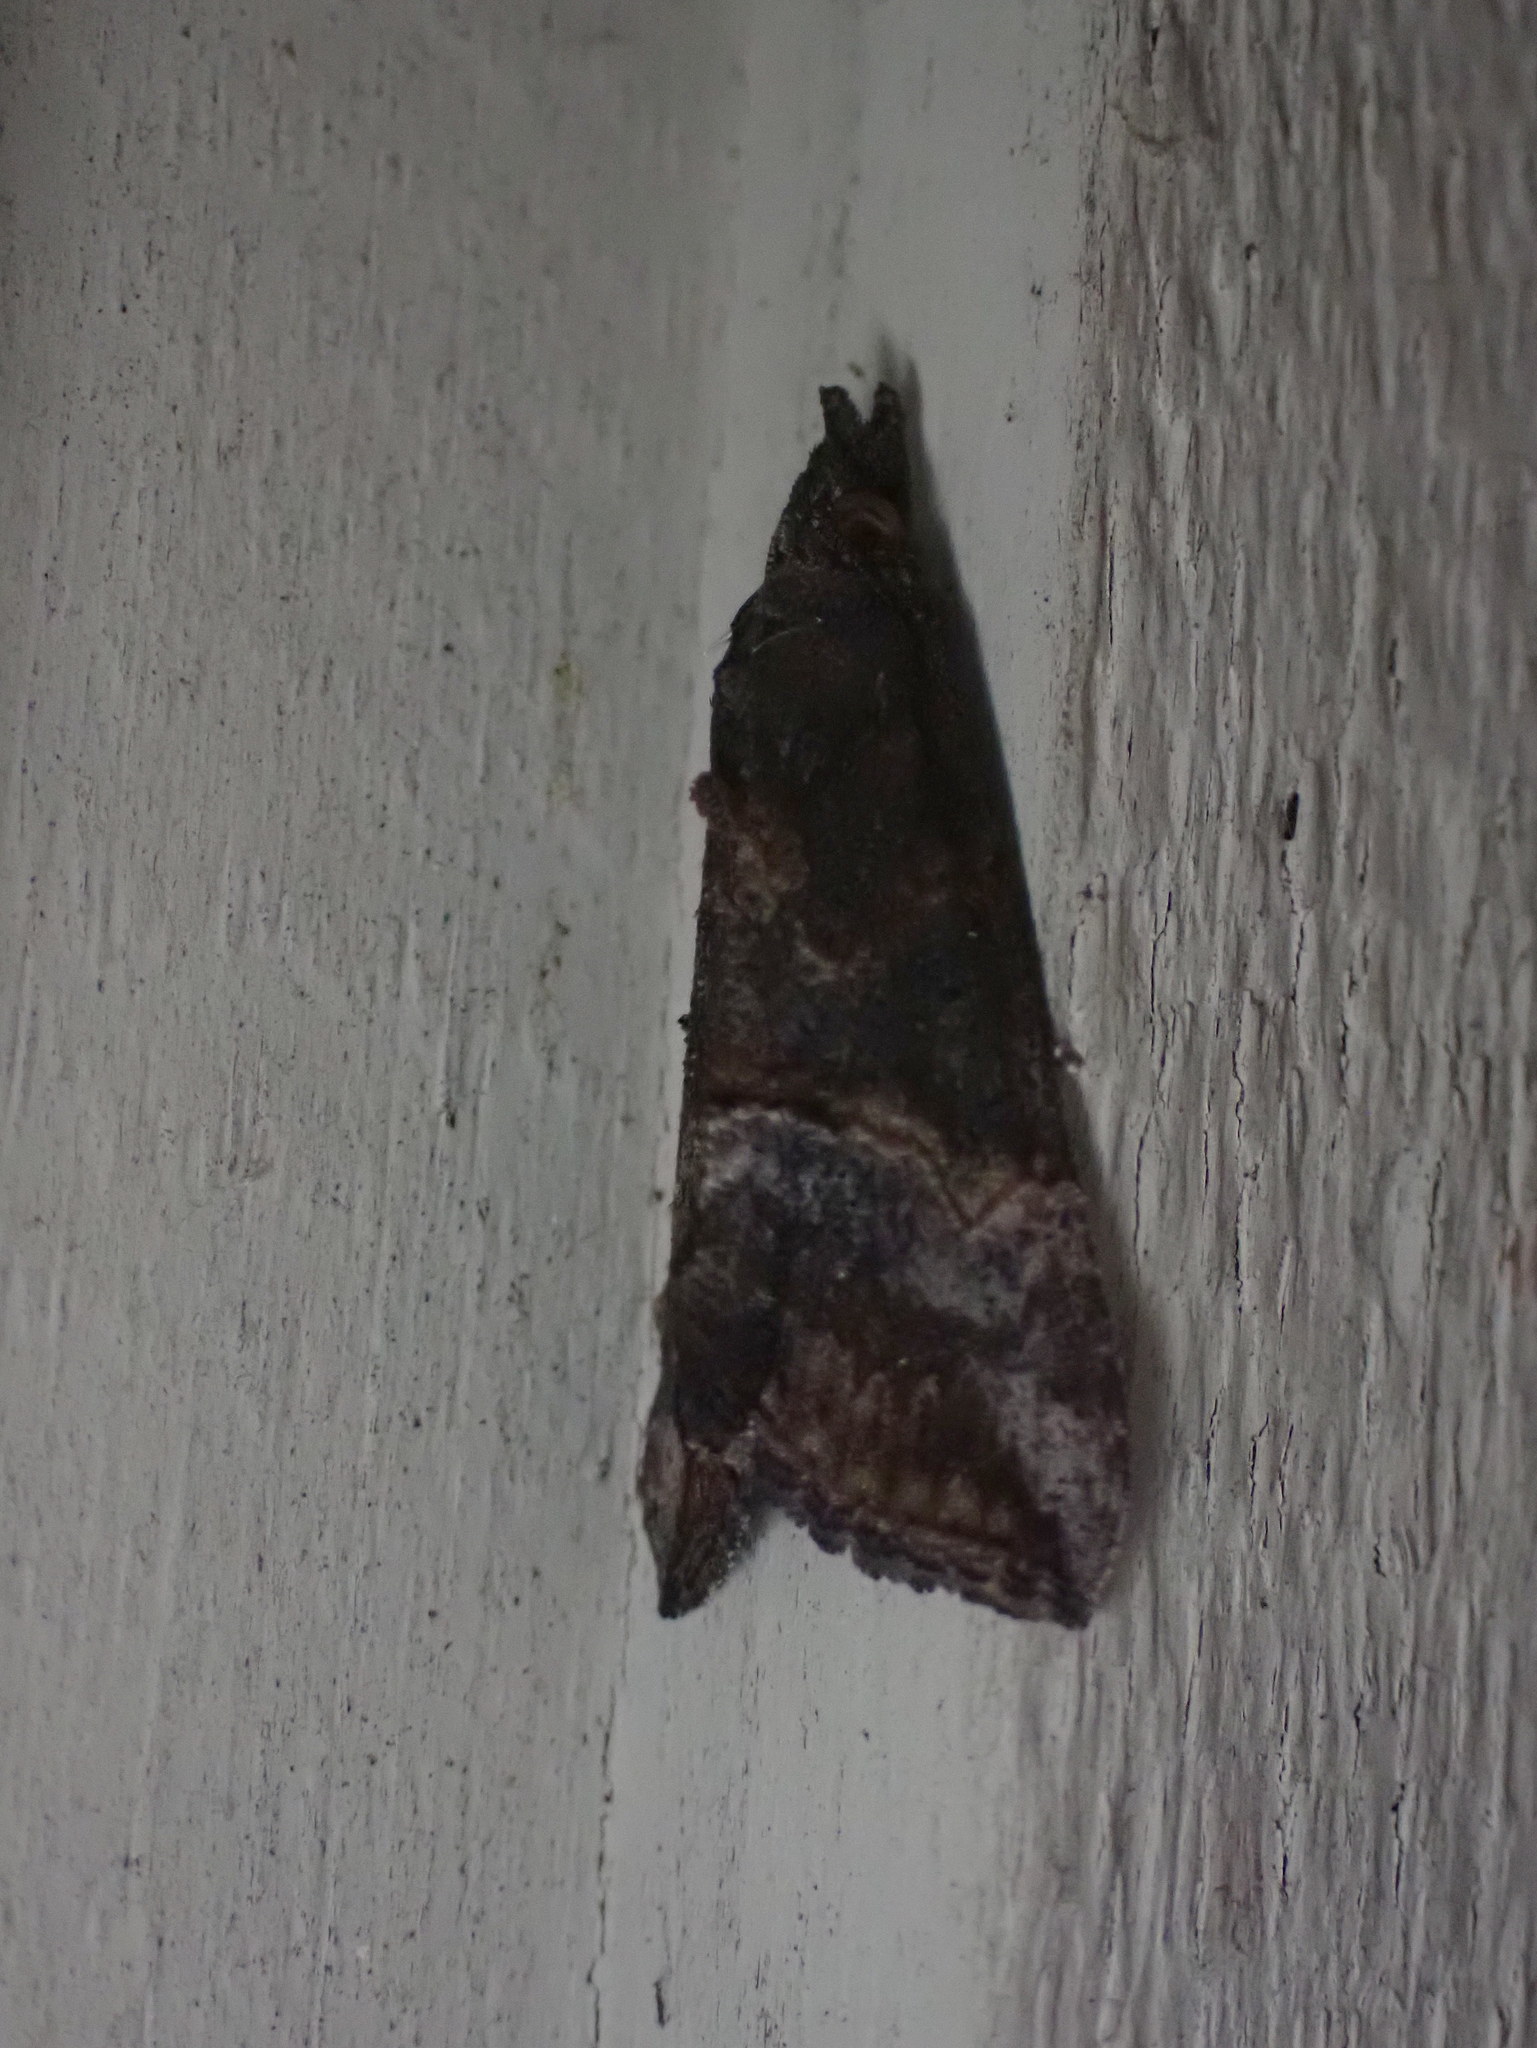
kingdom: Animalia
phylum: Arthropoda
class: Insecta
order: Lepidoptera
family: Erebidae
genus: Hypena
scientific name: Hypena scabra
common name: Green cloverworm
